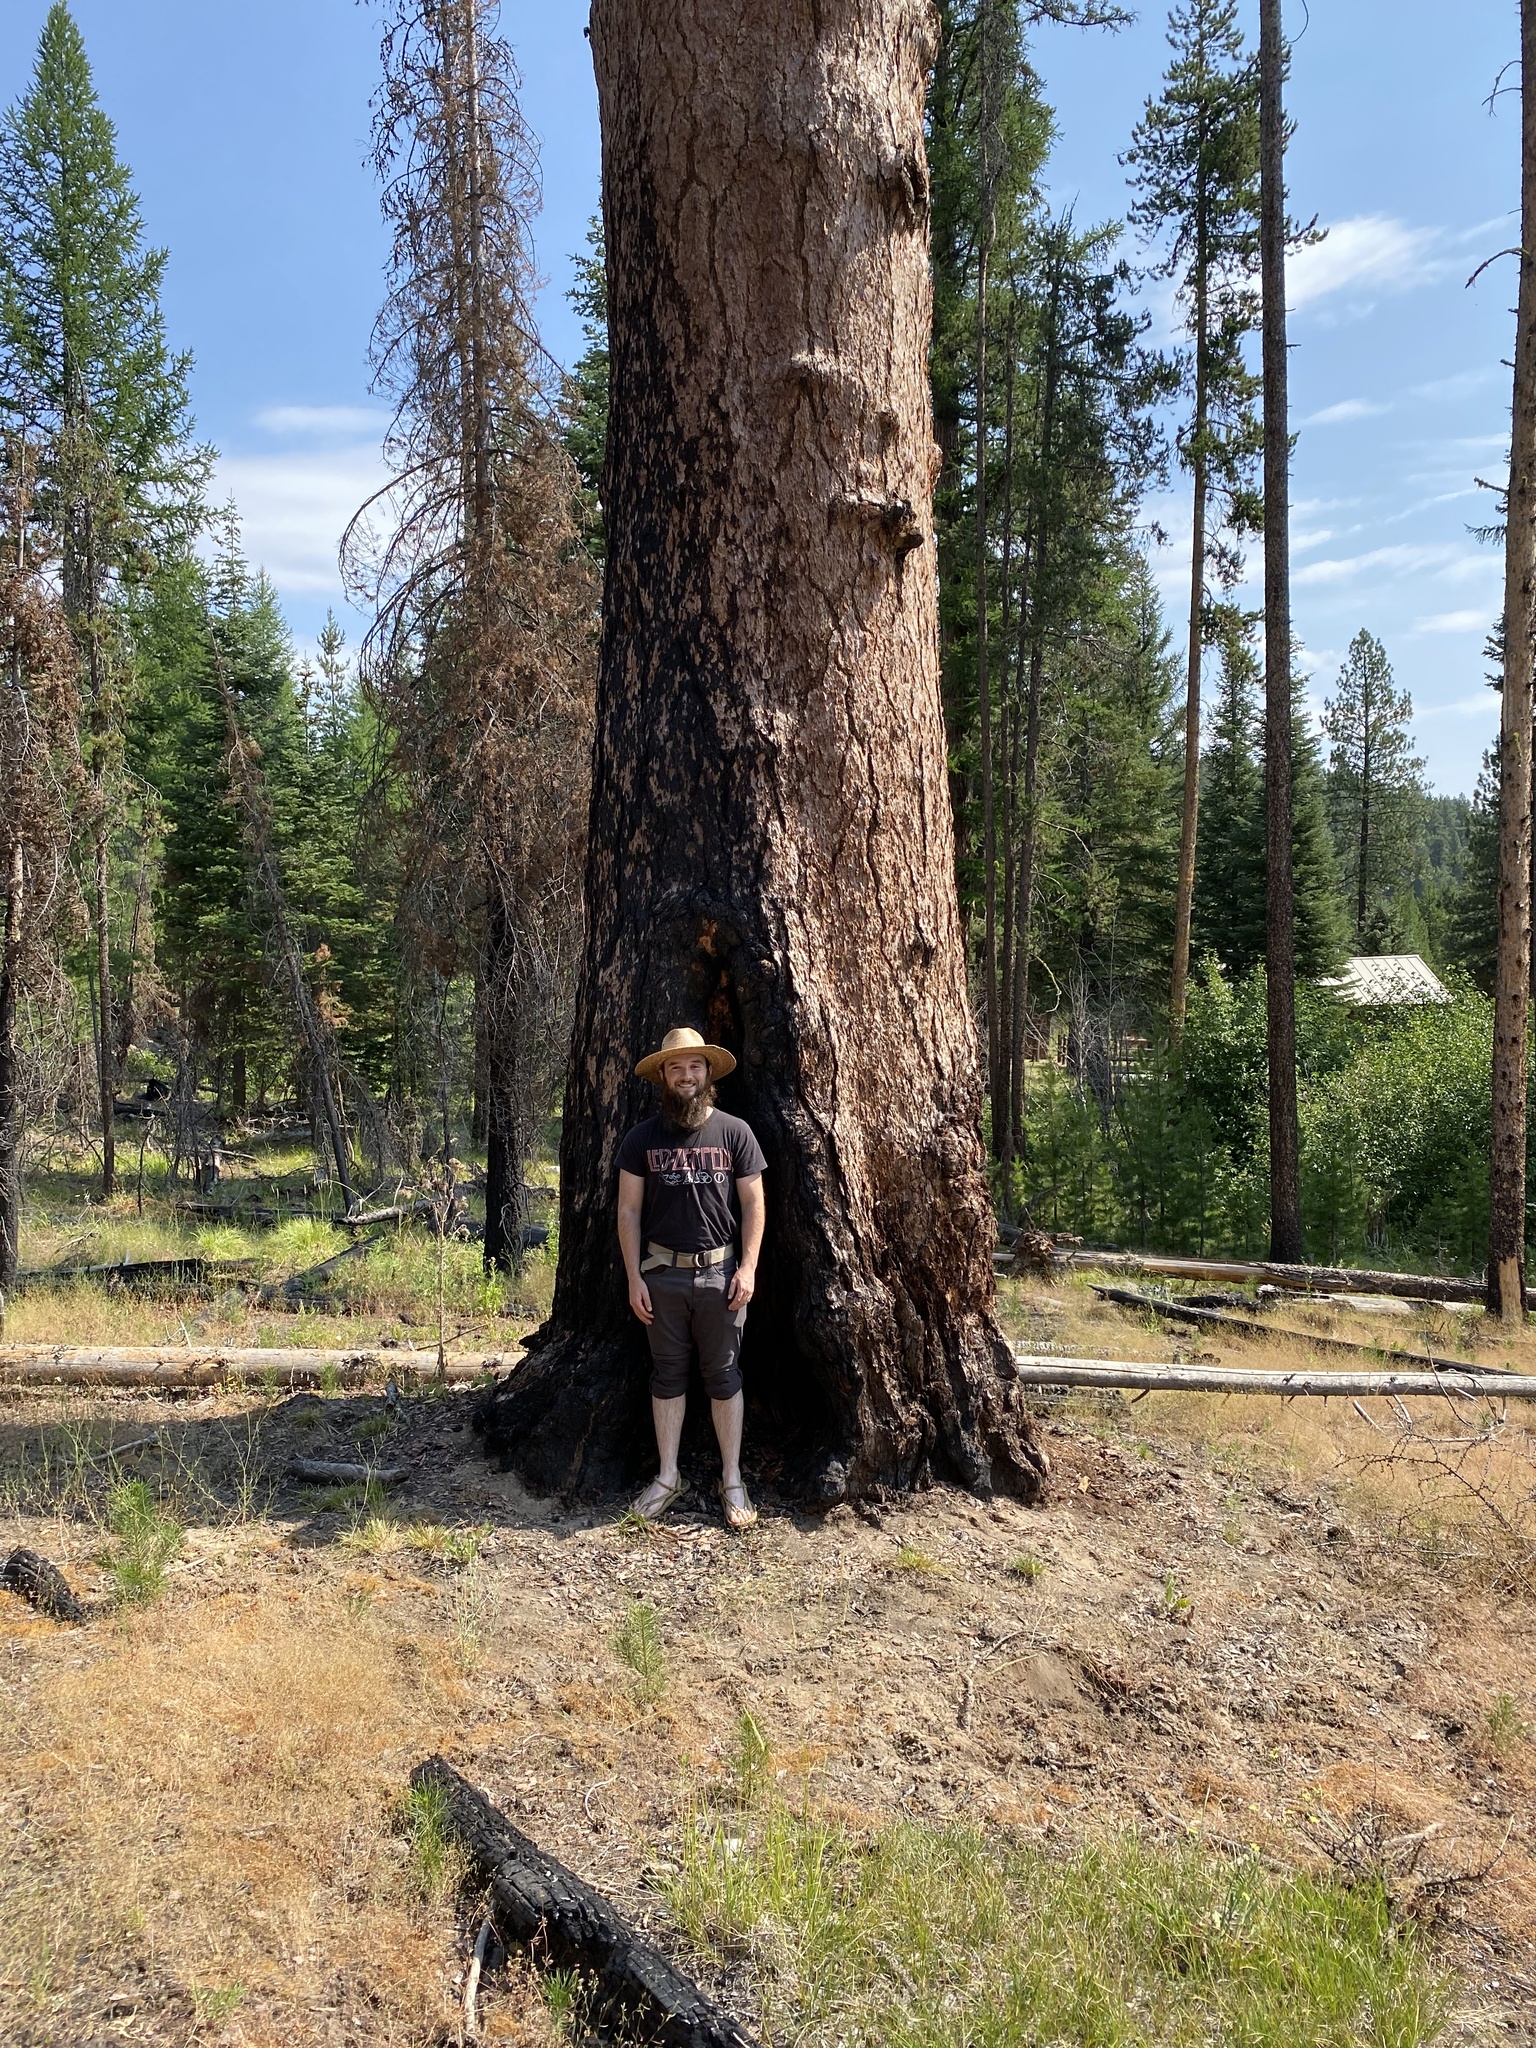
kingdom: Plantae
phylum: Tracheophyta
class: Pinopsida
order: Pinales
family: Pinaceae
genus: Larix
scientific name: Larix occidentalis
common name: Western larch
